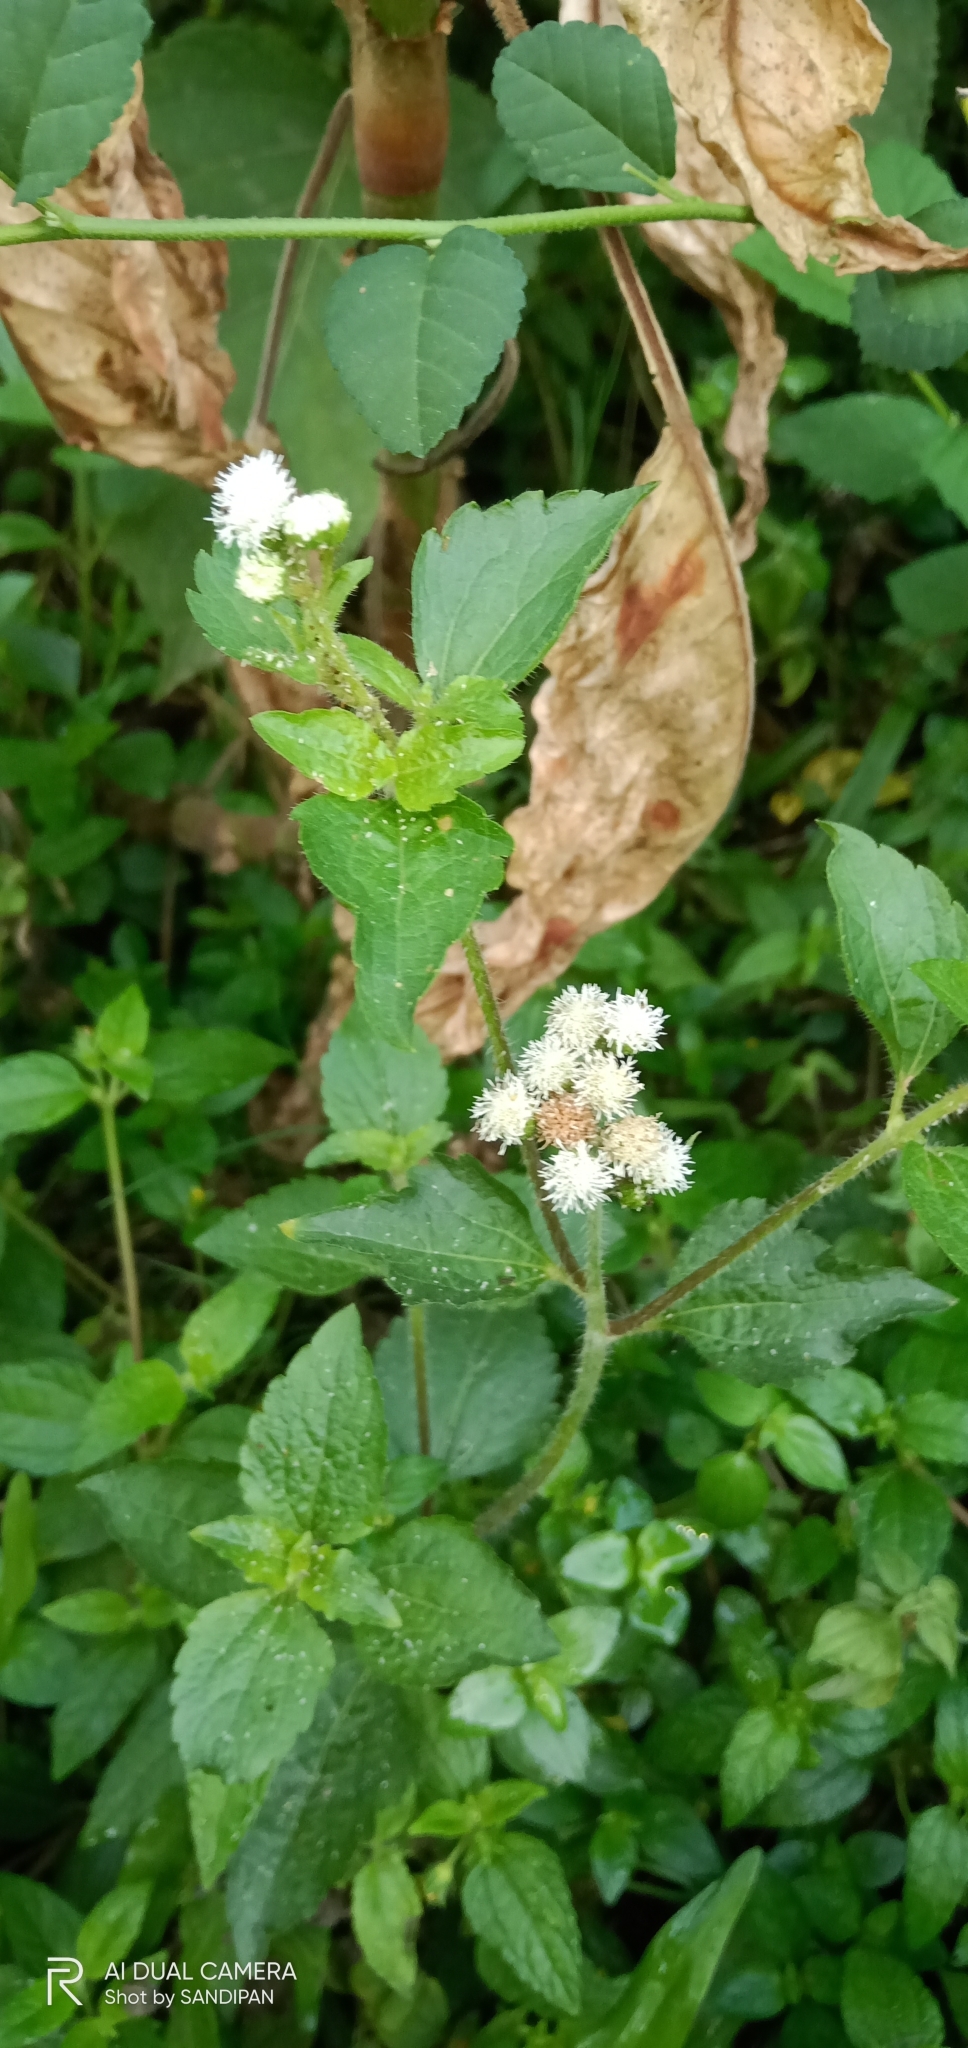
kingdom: Plantae
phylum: Tracheophyta
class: Magnoliopsida
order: Asterales
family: Asteraceae
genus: Ageratum
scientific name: Ageratum conyzoides
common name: Tropical whiteweed
